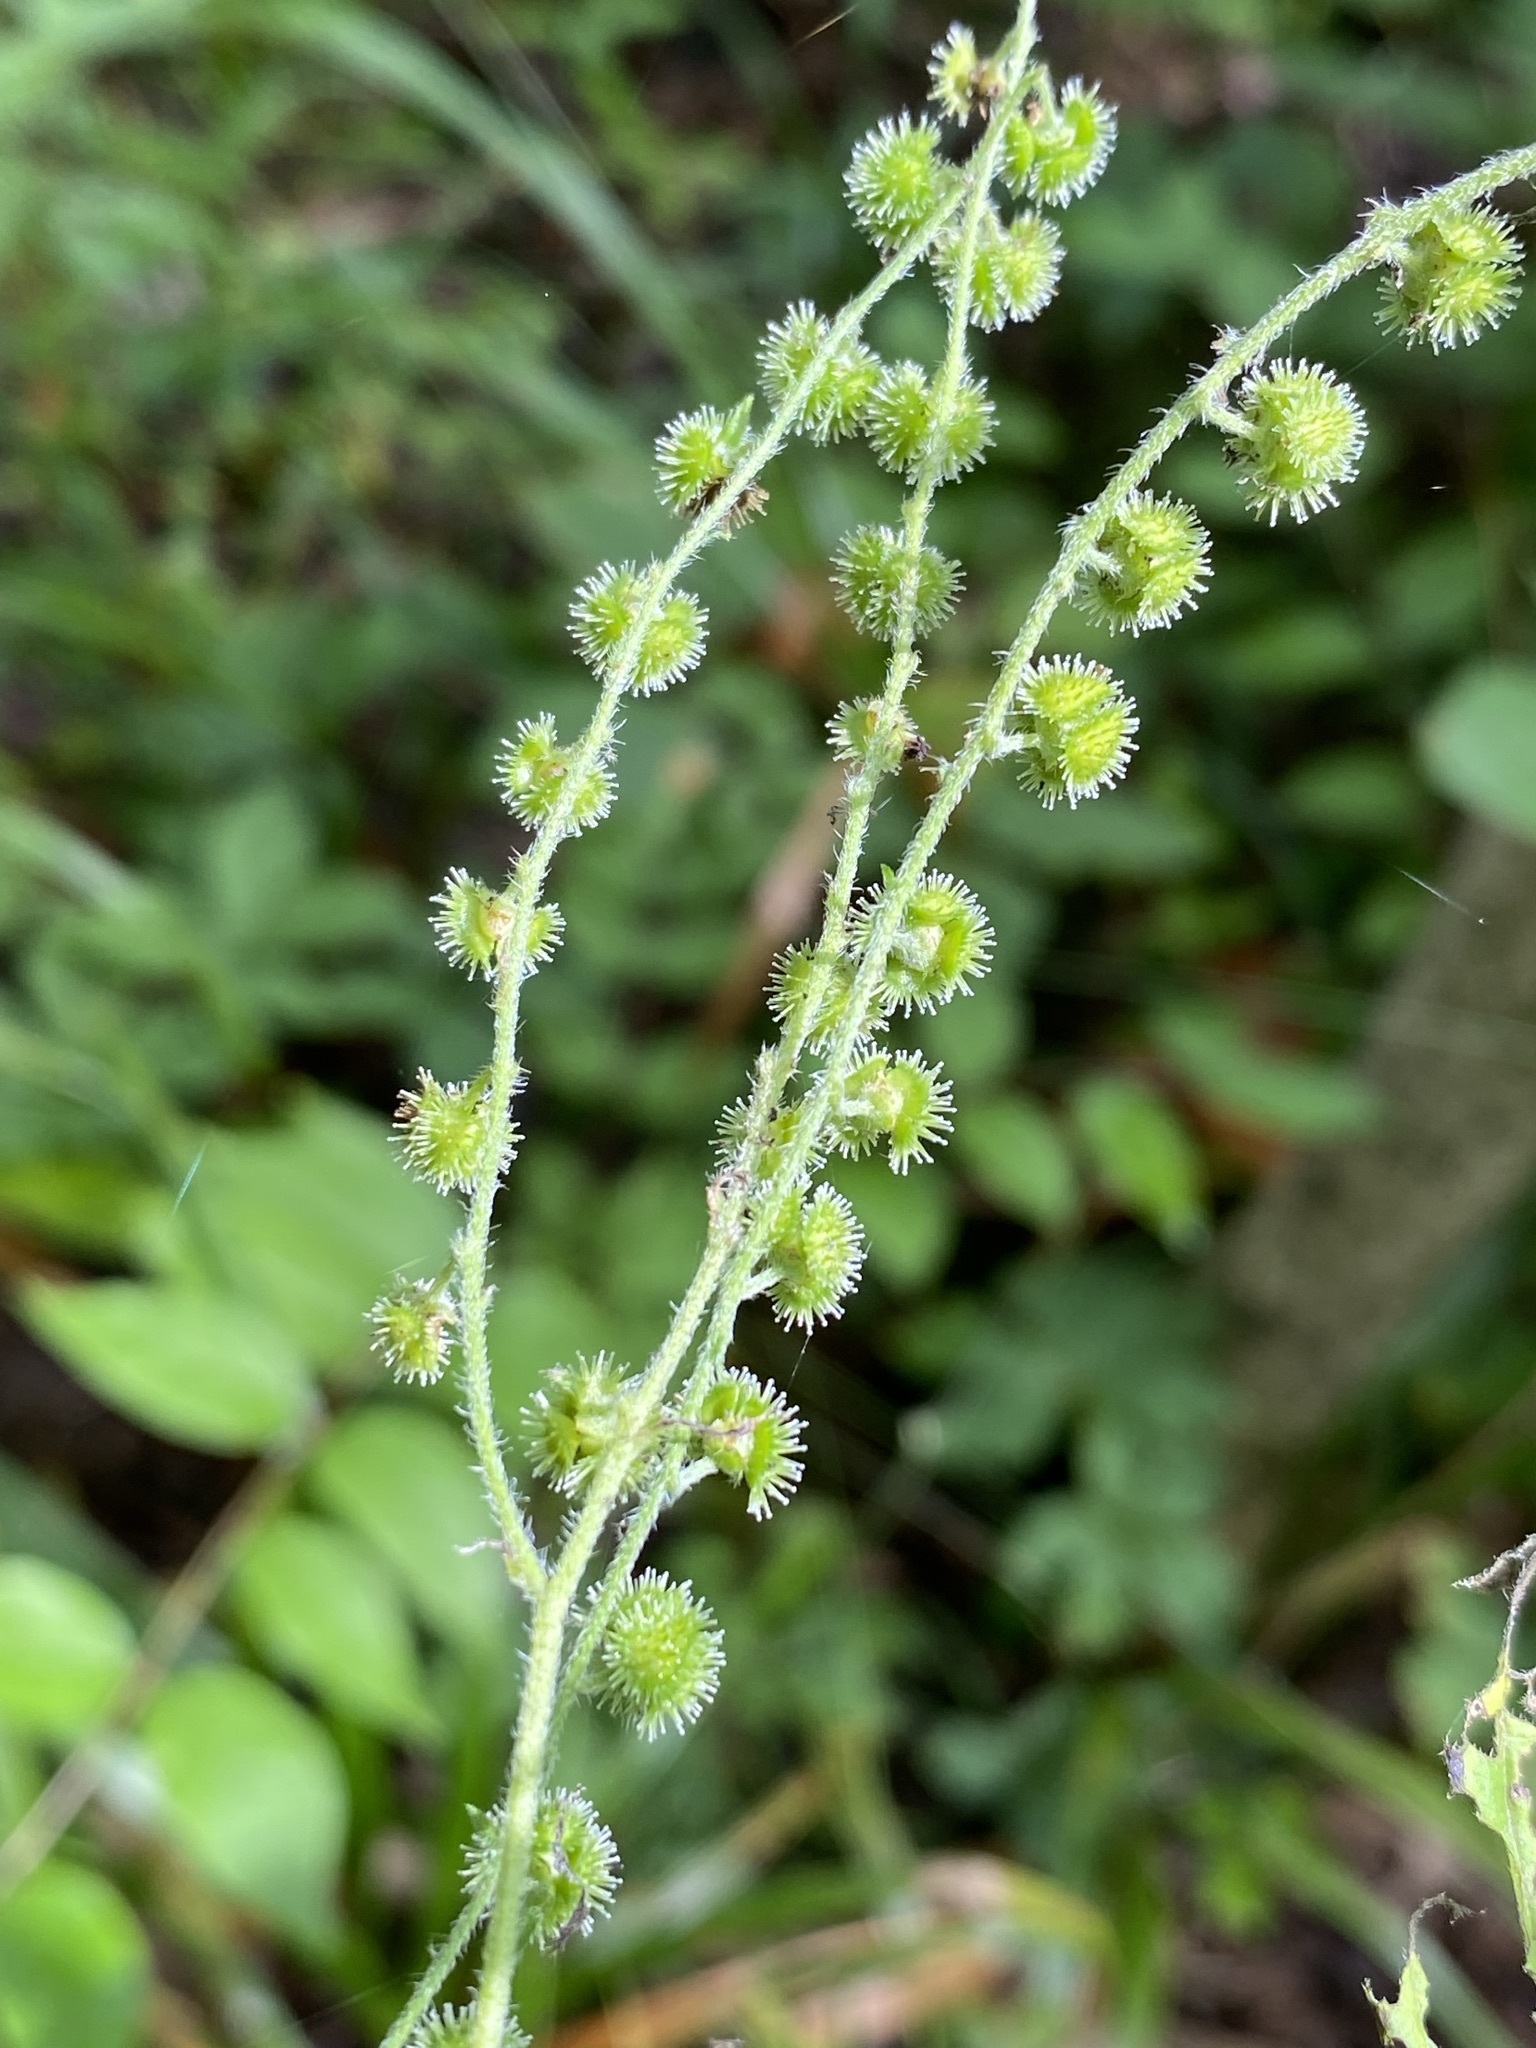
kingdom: Plantae
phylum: Tracheophyta
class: Magnoliopsida
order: Boraginales
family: Boraginaceae
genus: Hackelia
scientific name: Hackelia virginiana
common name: Beggar's-lice
